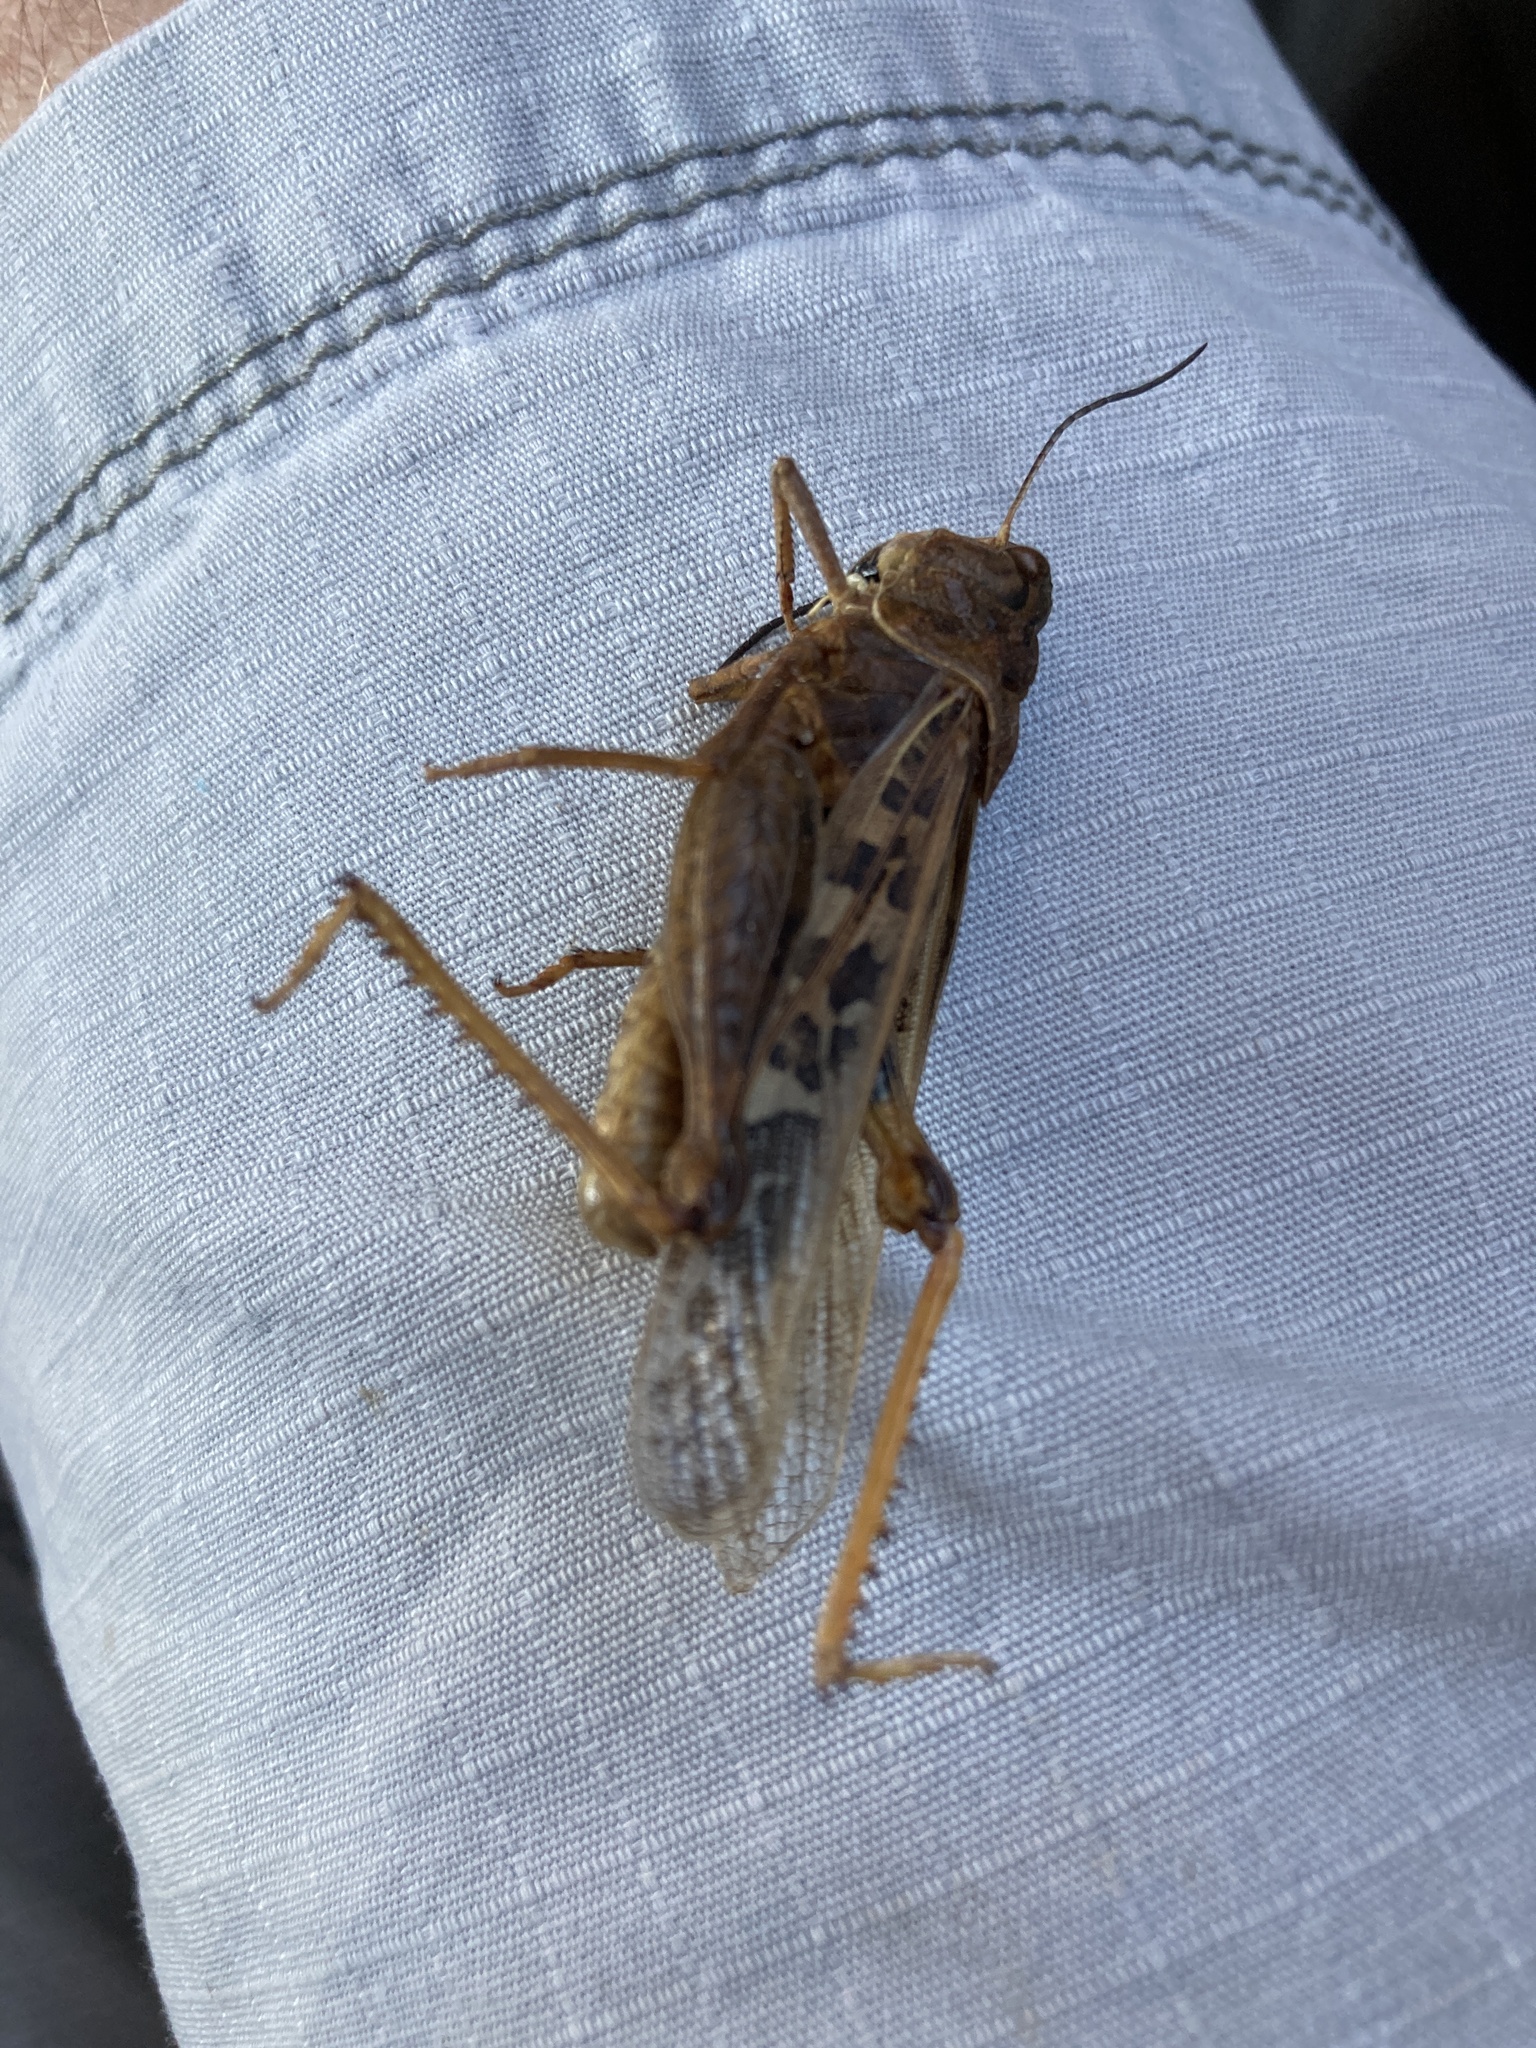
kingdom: Animalia
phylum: Arthropoda
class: Insecta
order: Orthoptera
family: Acrididae
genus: Hippiscus
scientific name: Hippiscus ocelote
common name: Wrinkled grasshopper
